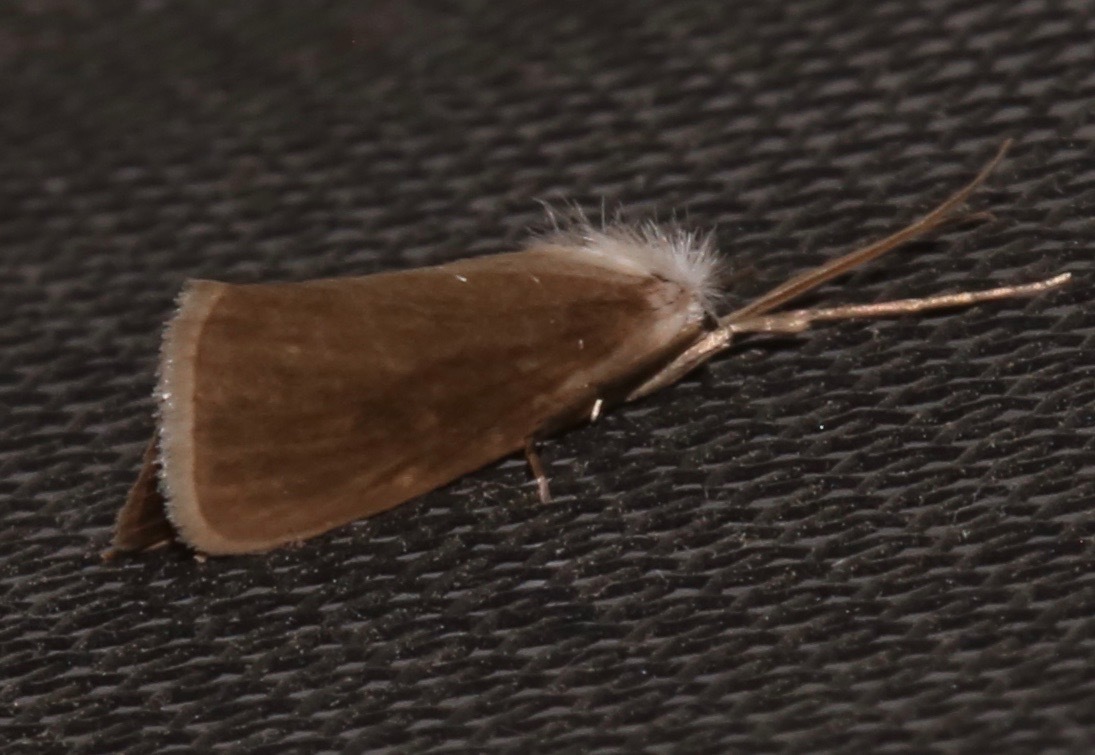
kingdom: Animalia
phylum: Arthropoda
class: Insecta
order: Lepidoptera
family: Crambidae
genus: Rupela
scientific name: Rupela tinctella
